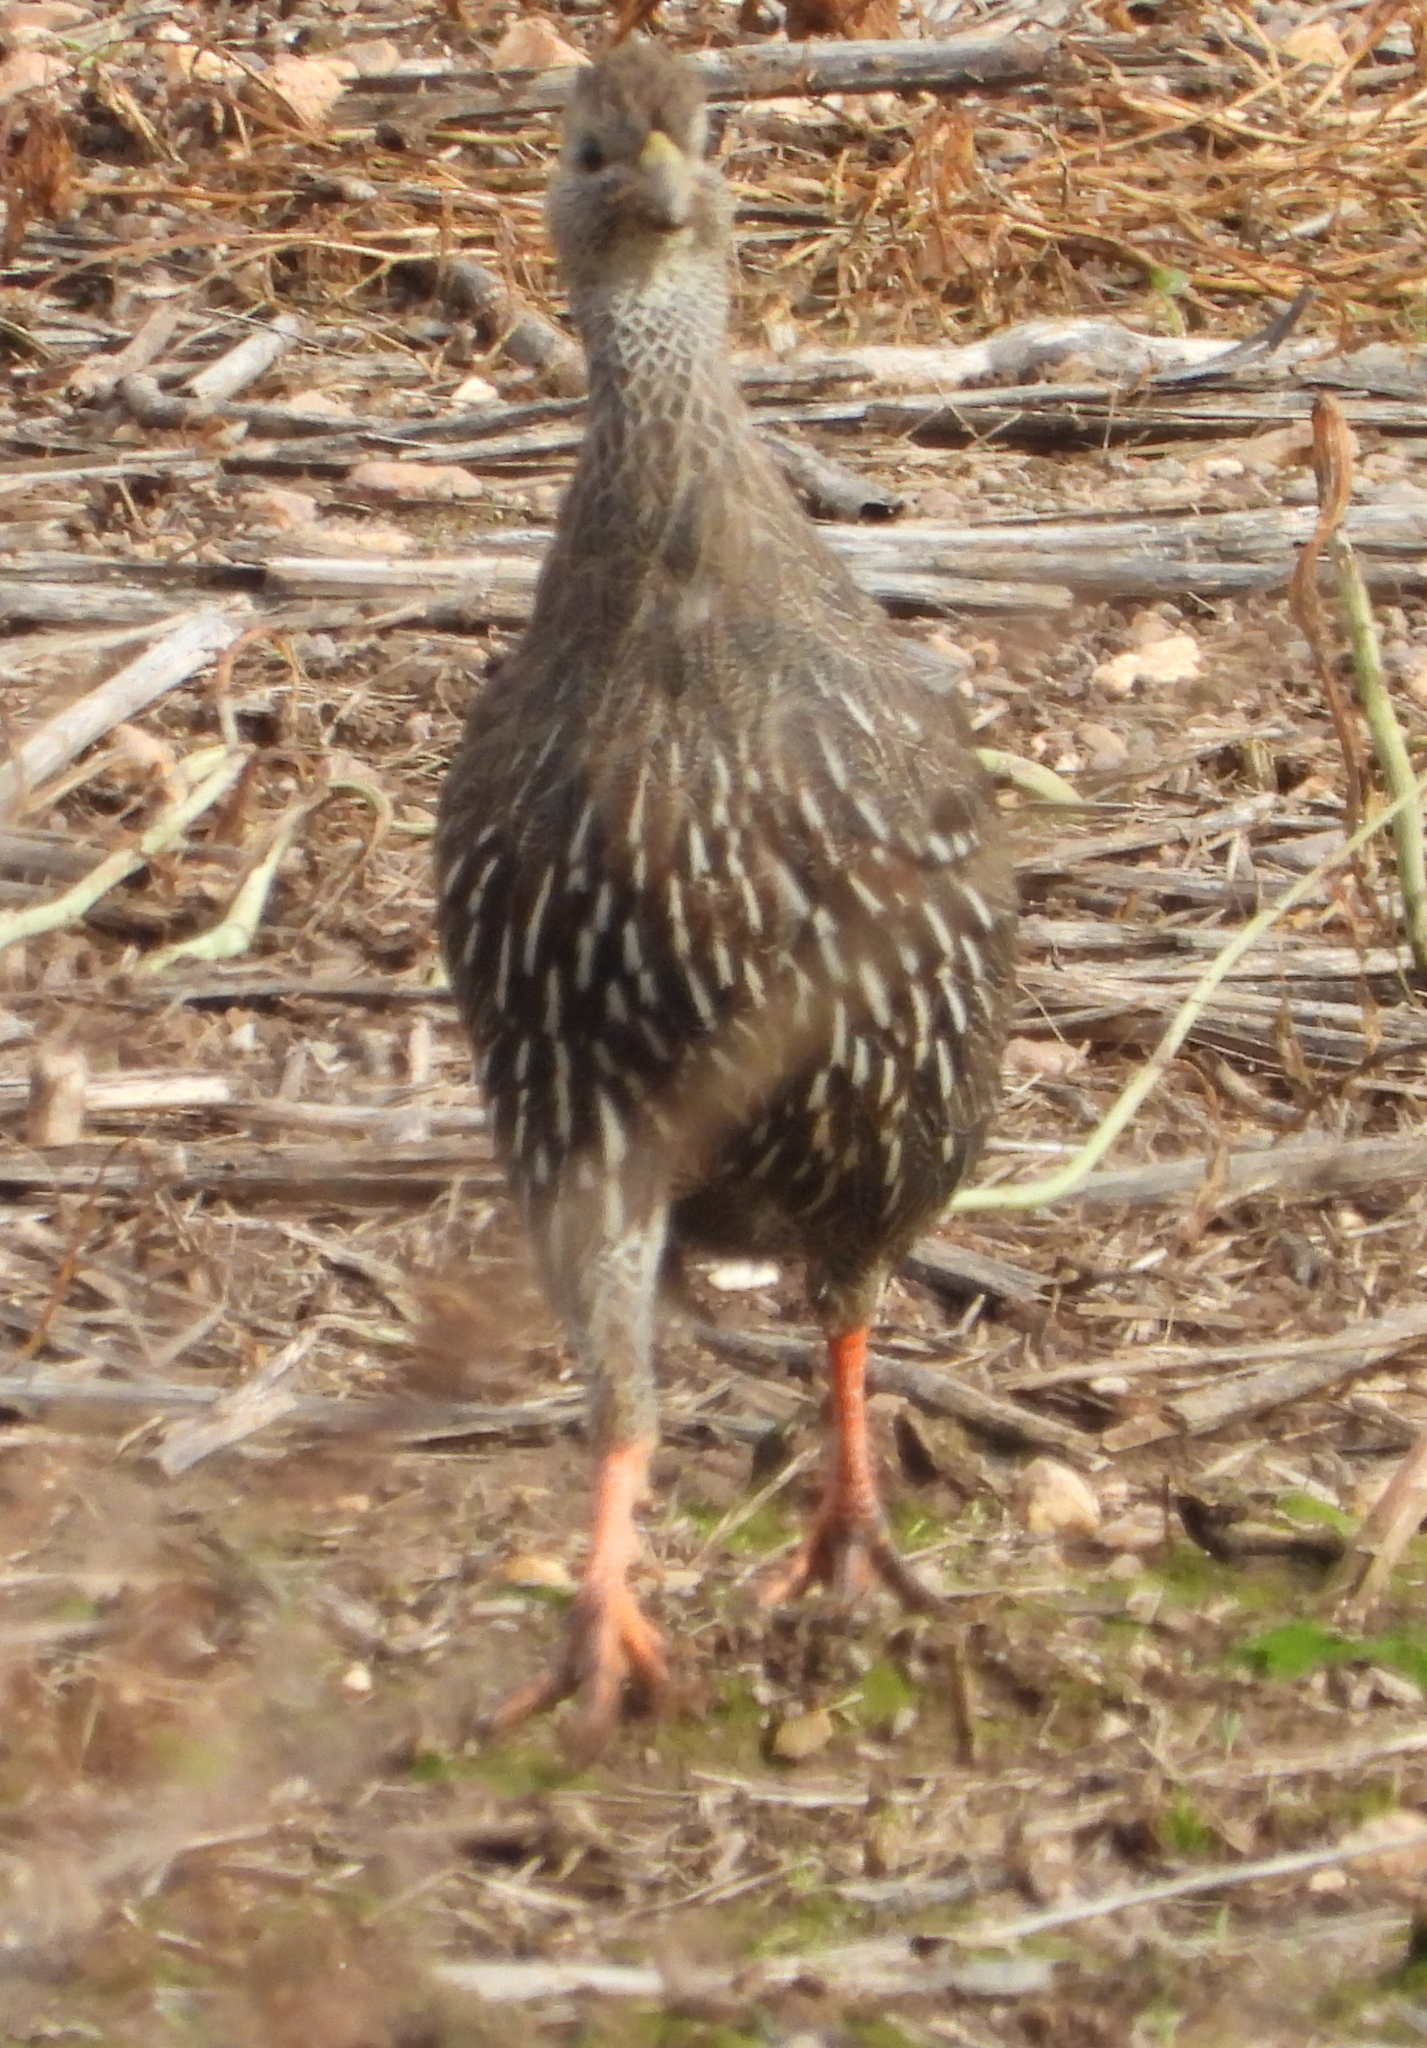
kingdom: Animalia
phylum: Chordata
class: Aves
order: Galliformes
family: Phasianidae
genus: Pternistis
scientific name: Pternistis capensis
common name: Cape spurfowl
